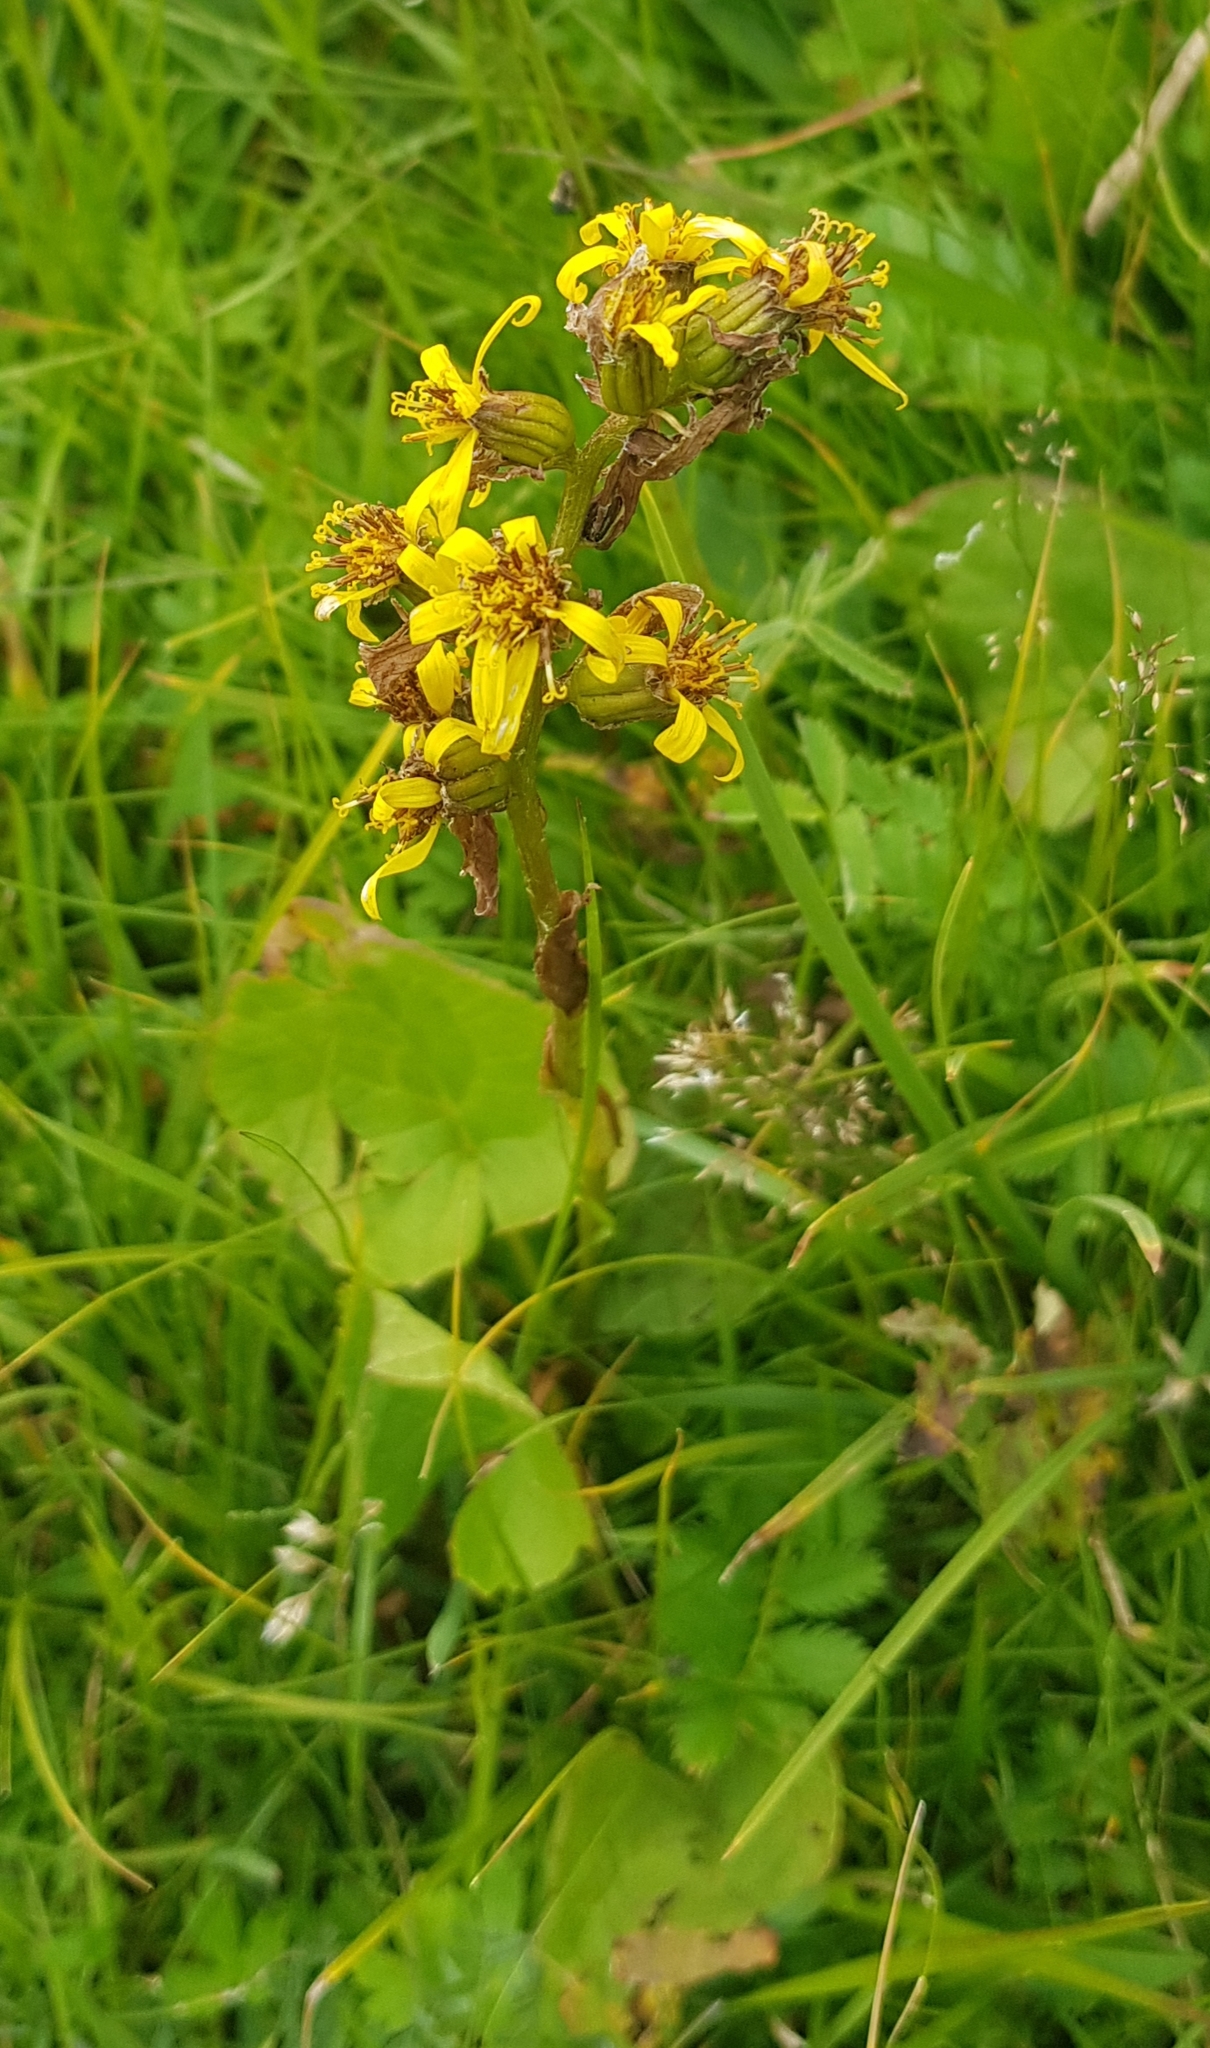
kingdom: Plantae
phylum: Tracheophyta
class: Magnoliopsida
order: Asterales
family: Asteraceae
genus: Ligularia
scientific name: Ligularia sibirica
